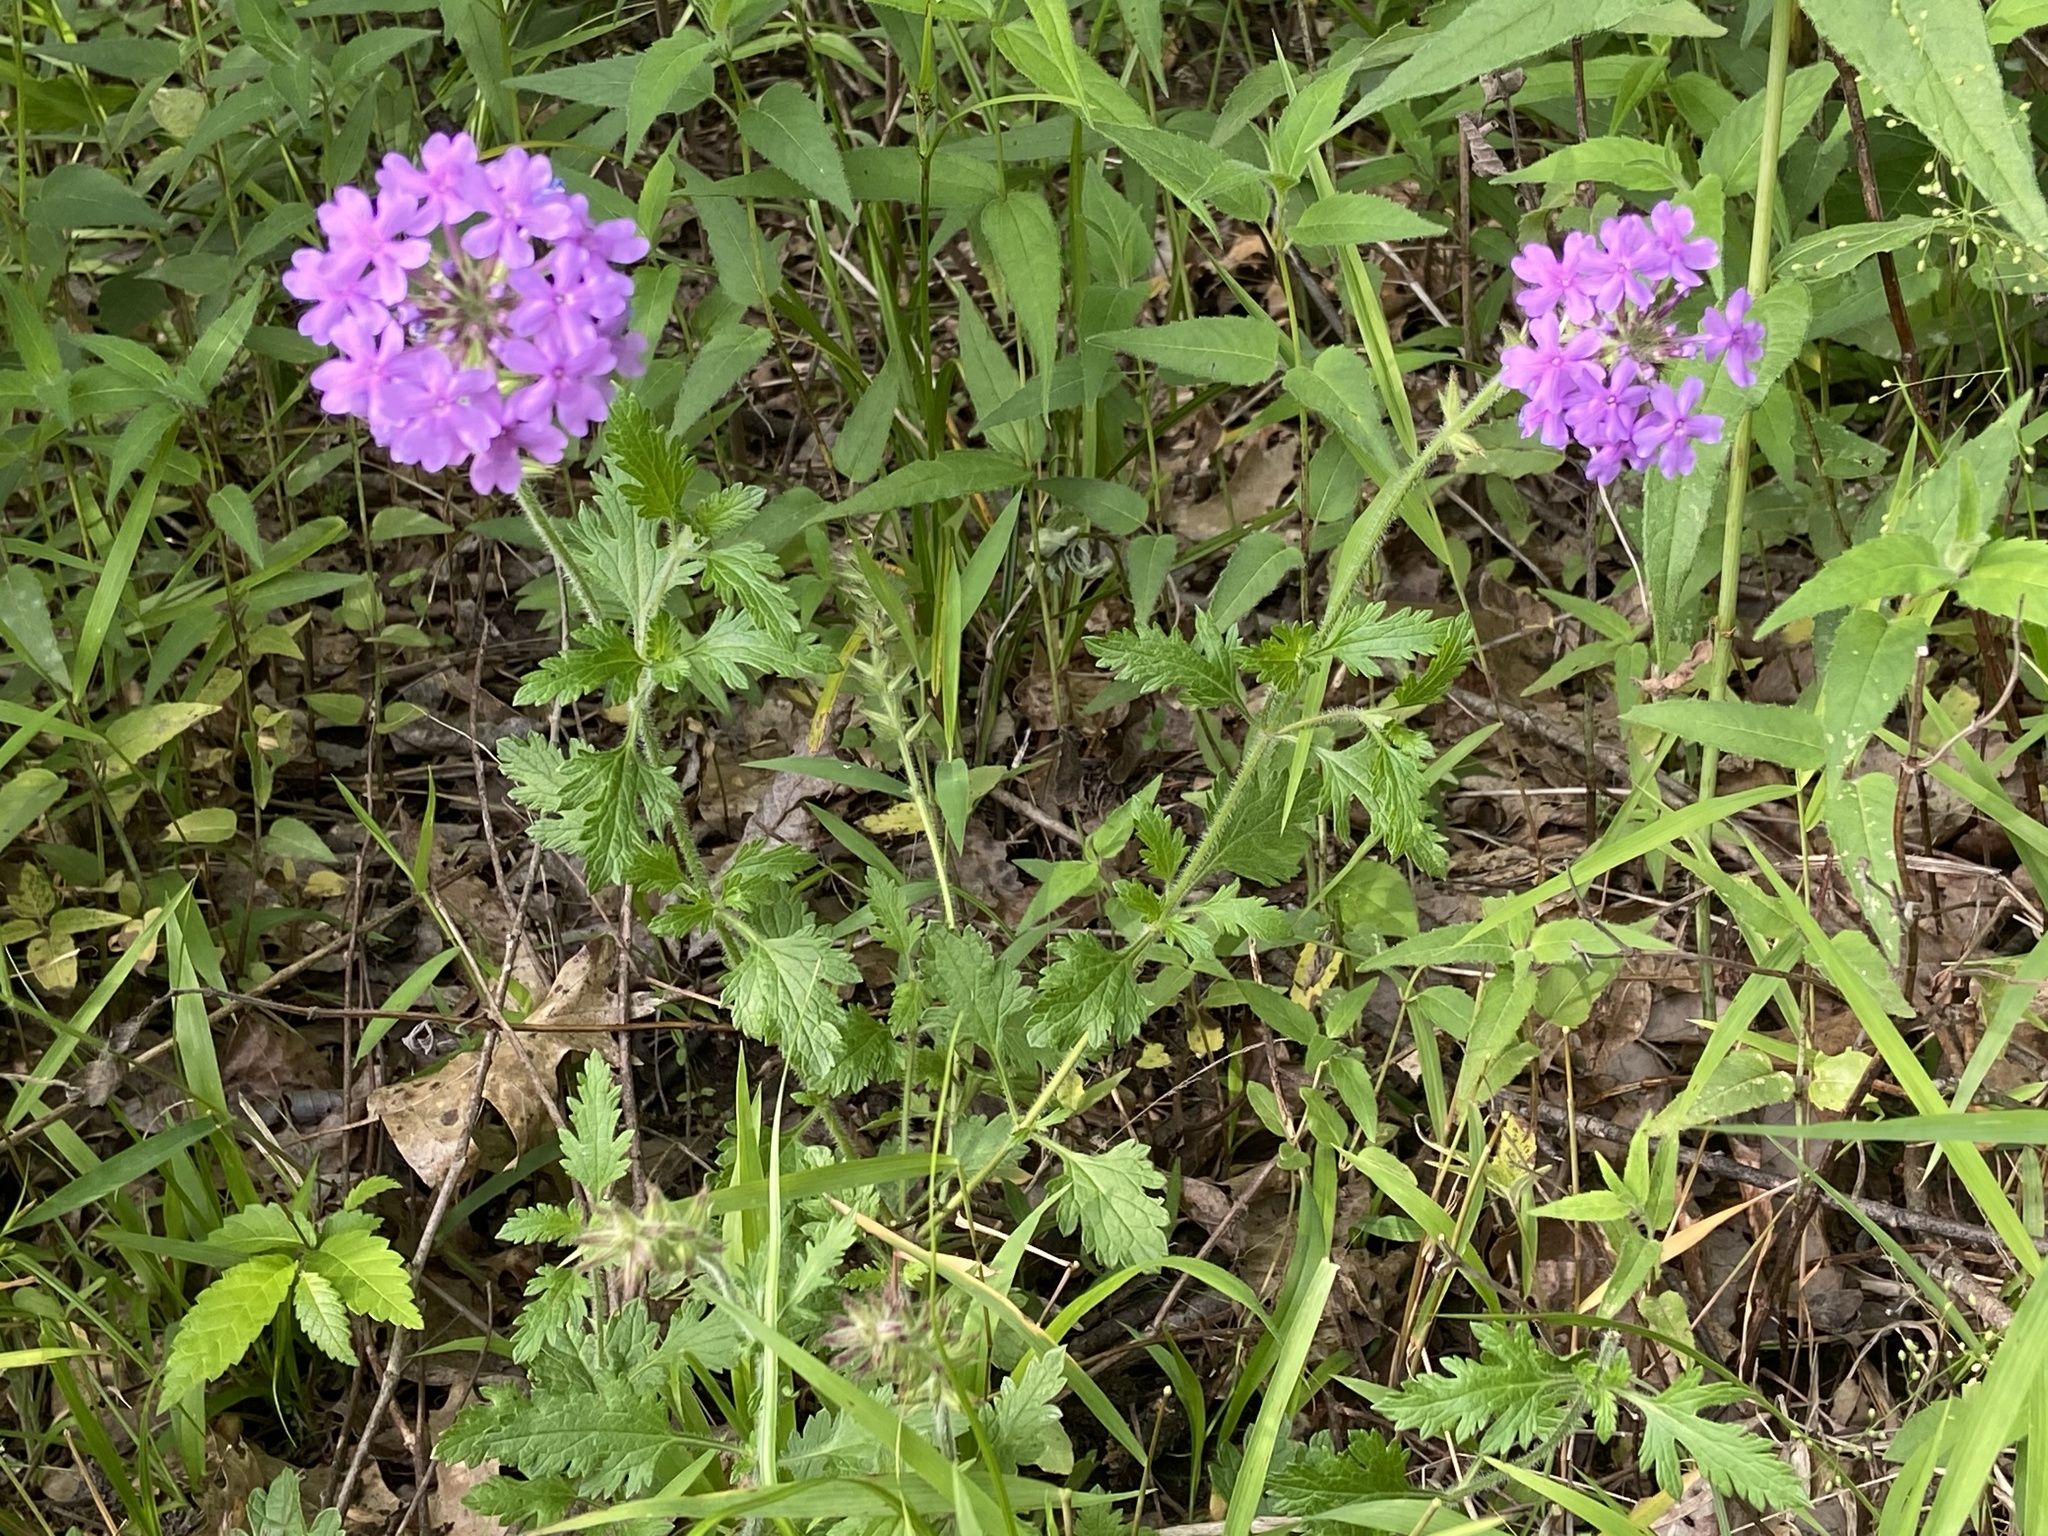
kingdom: Plantae
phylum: Tracheophyta
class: Magnoliopsida
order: Lamiales
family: Verbenaceae
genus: Verbena
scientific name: Verbena canadensis
